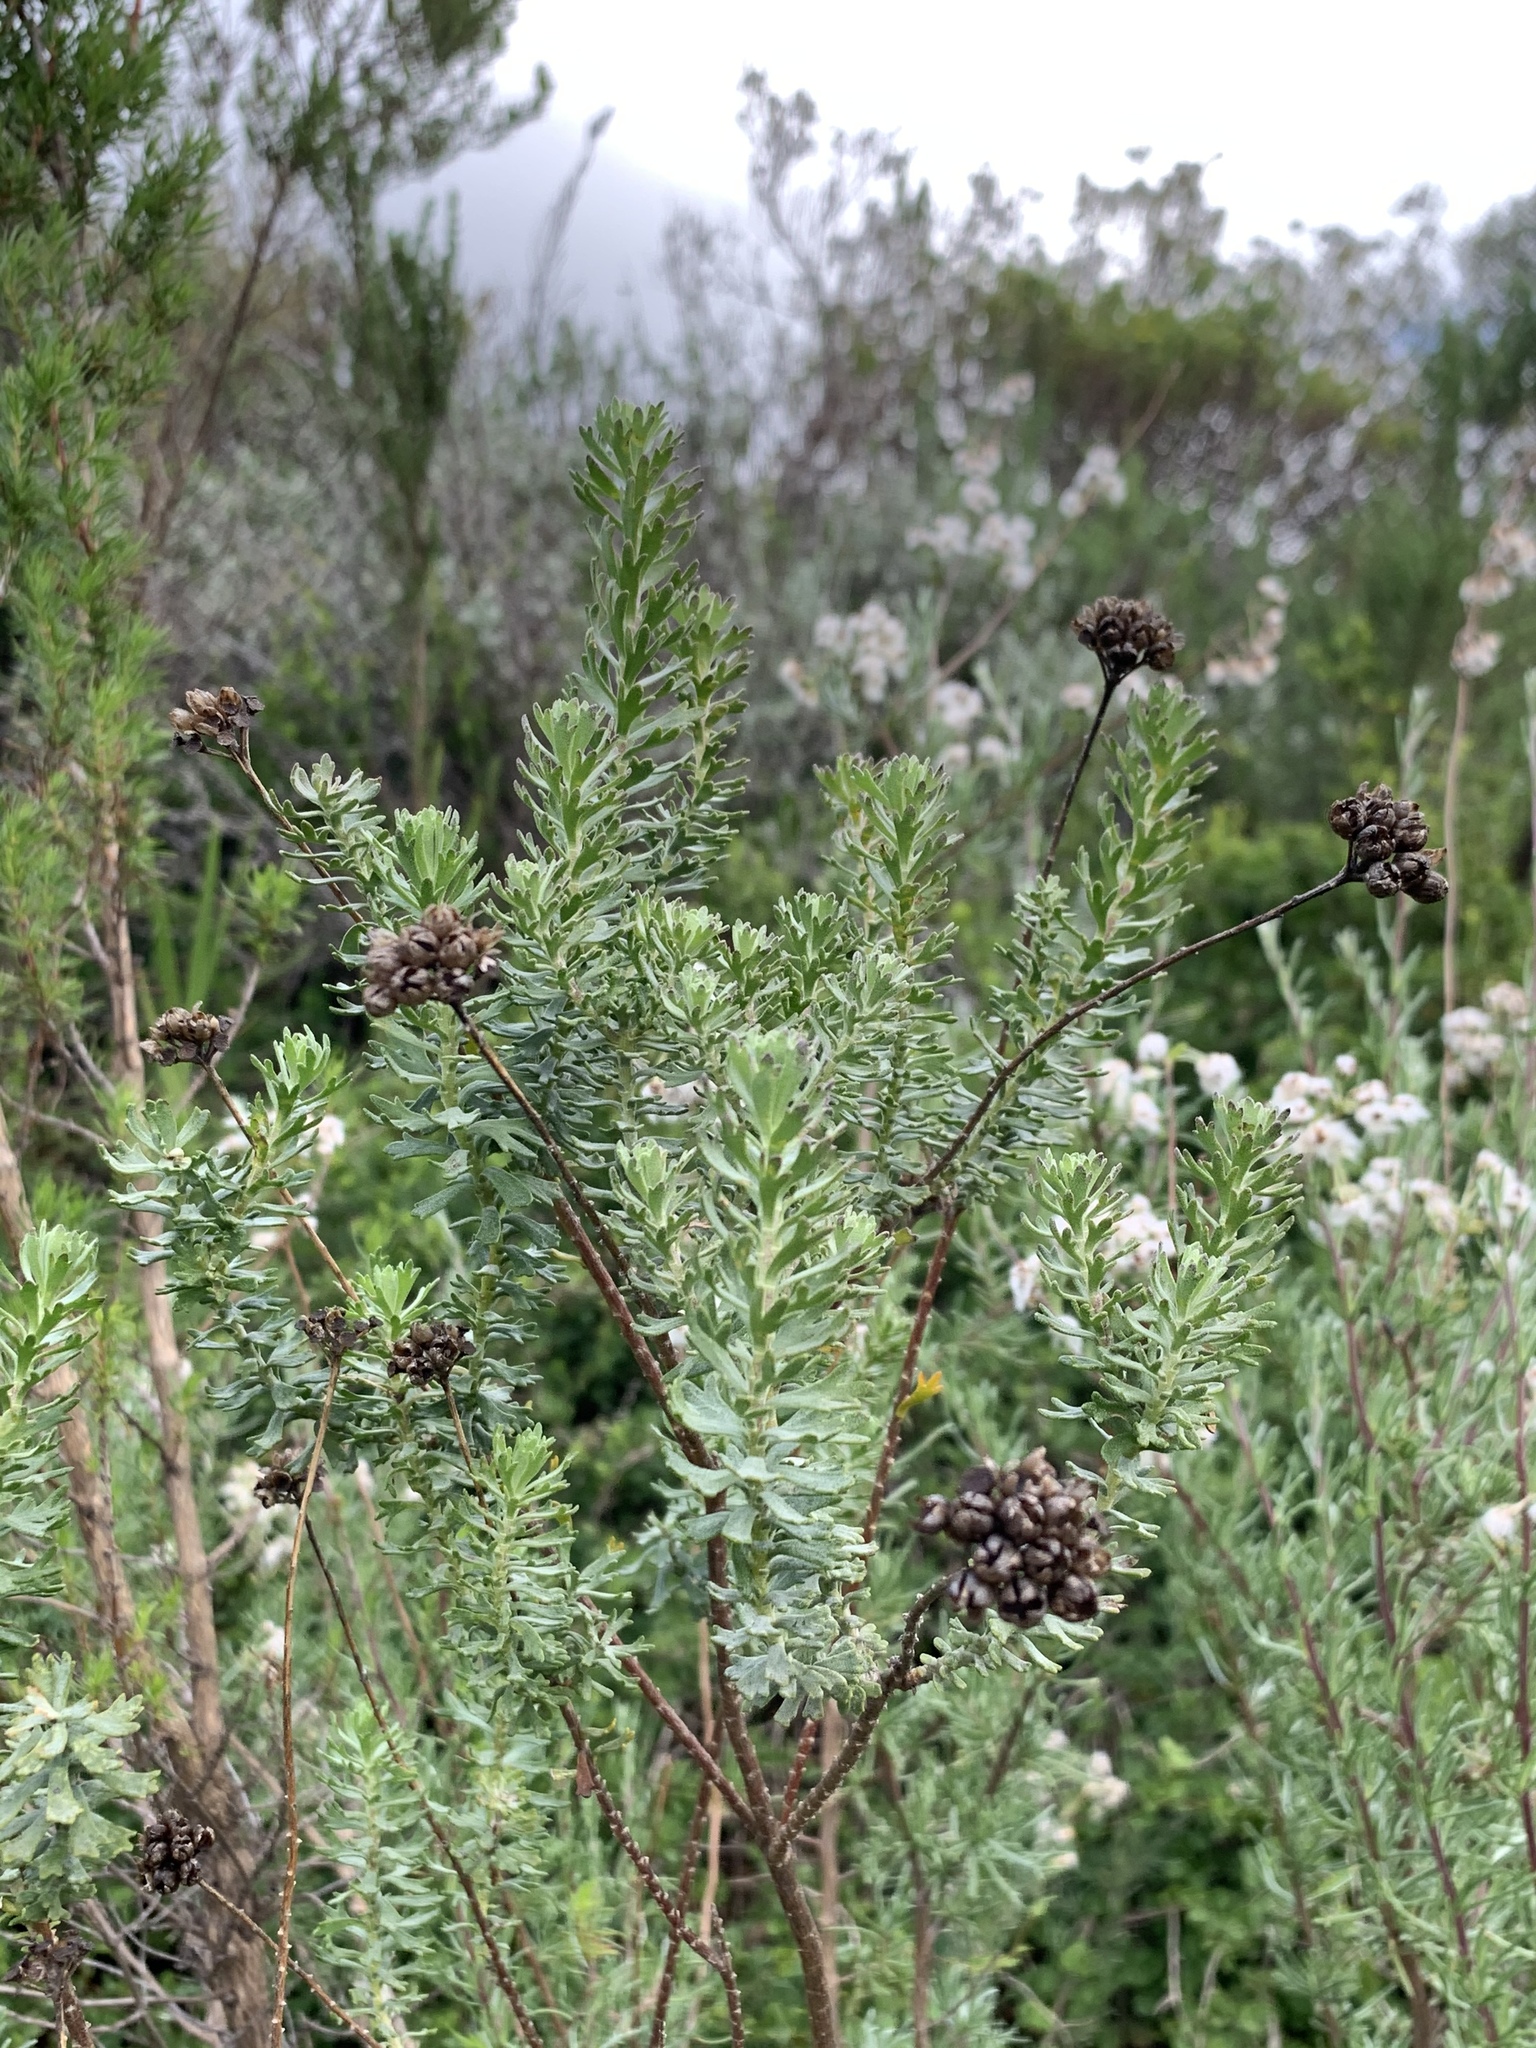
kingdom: Plantae
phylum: Tracheophyta
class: Magnoliopsida
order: Asterales
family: Asteraceae
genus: Athanasia
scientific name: Athanasia trifurcata
